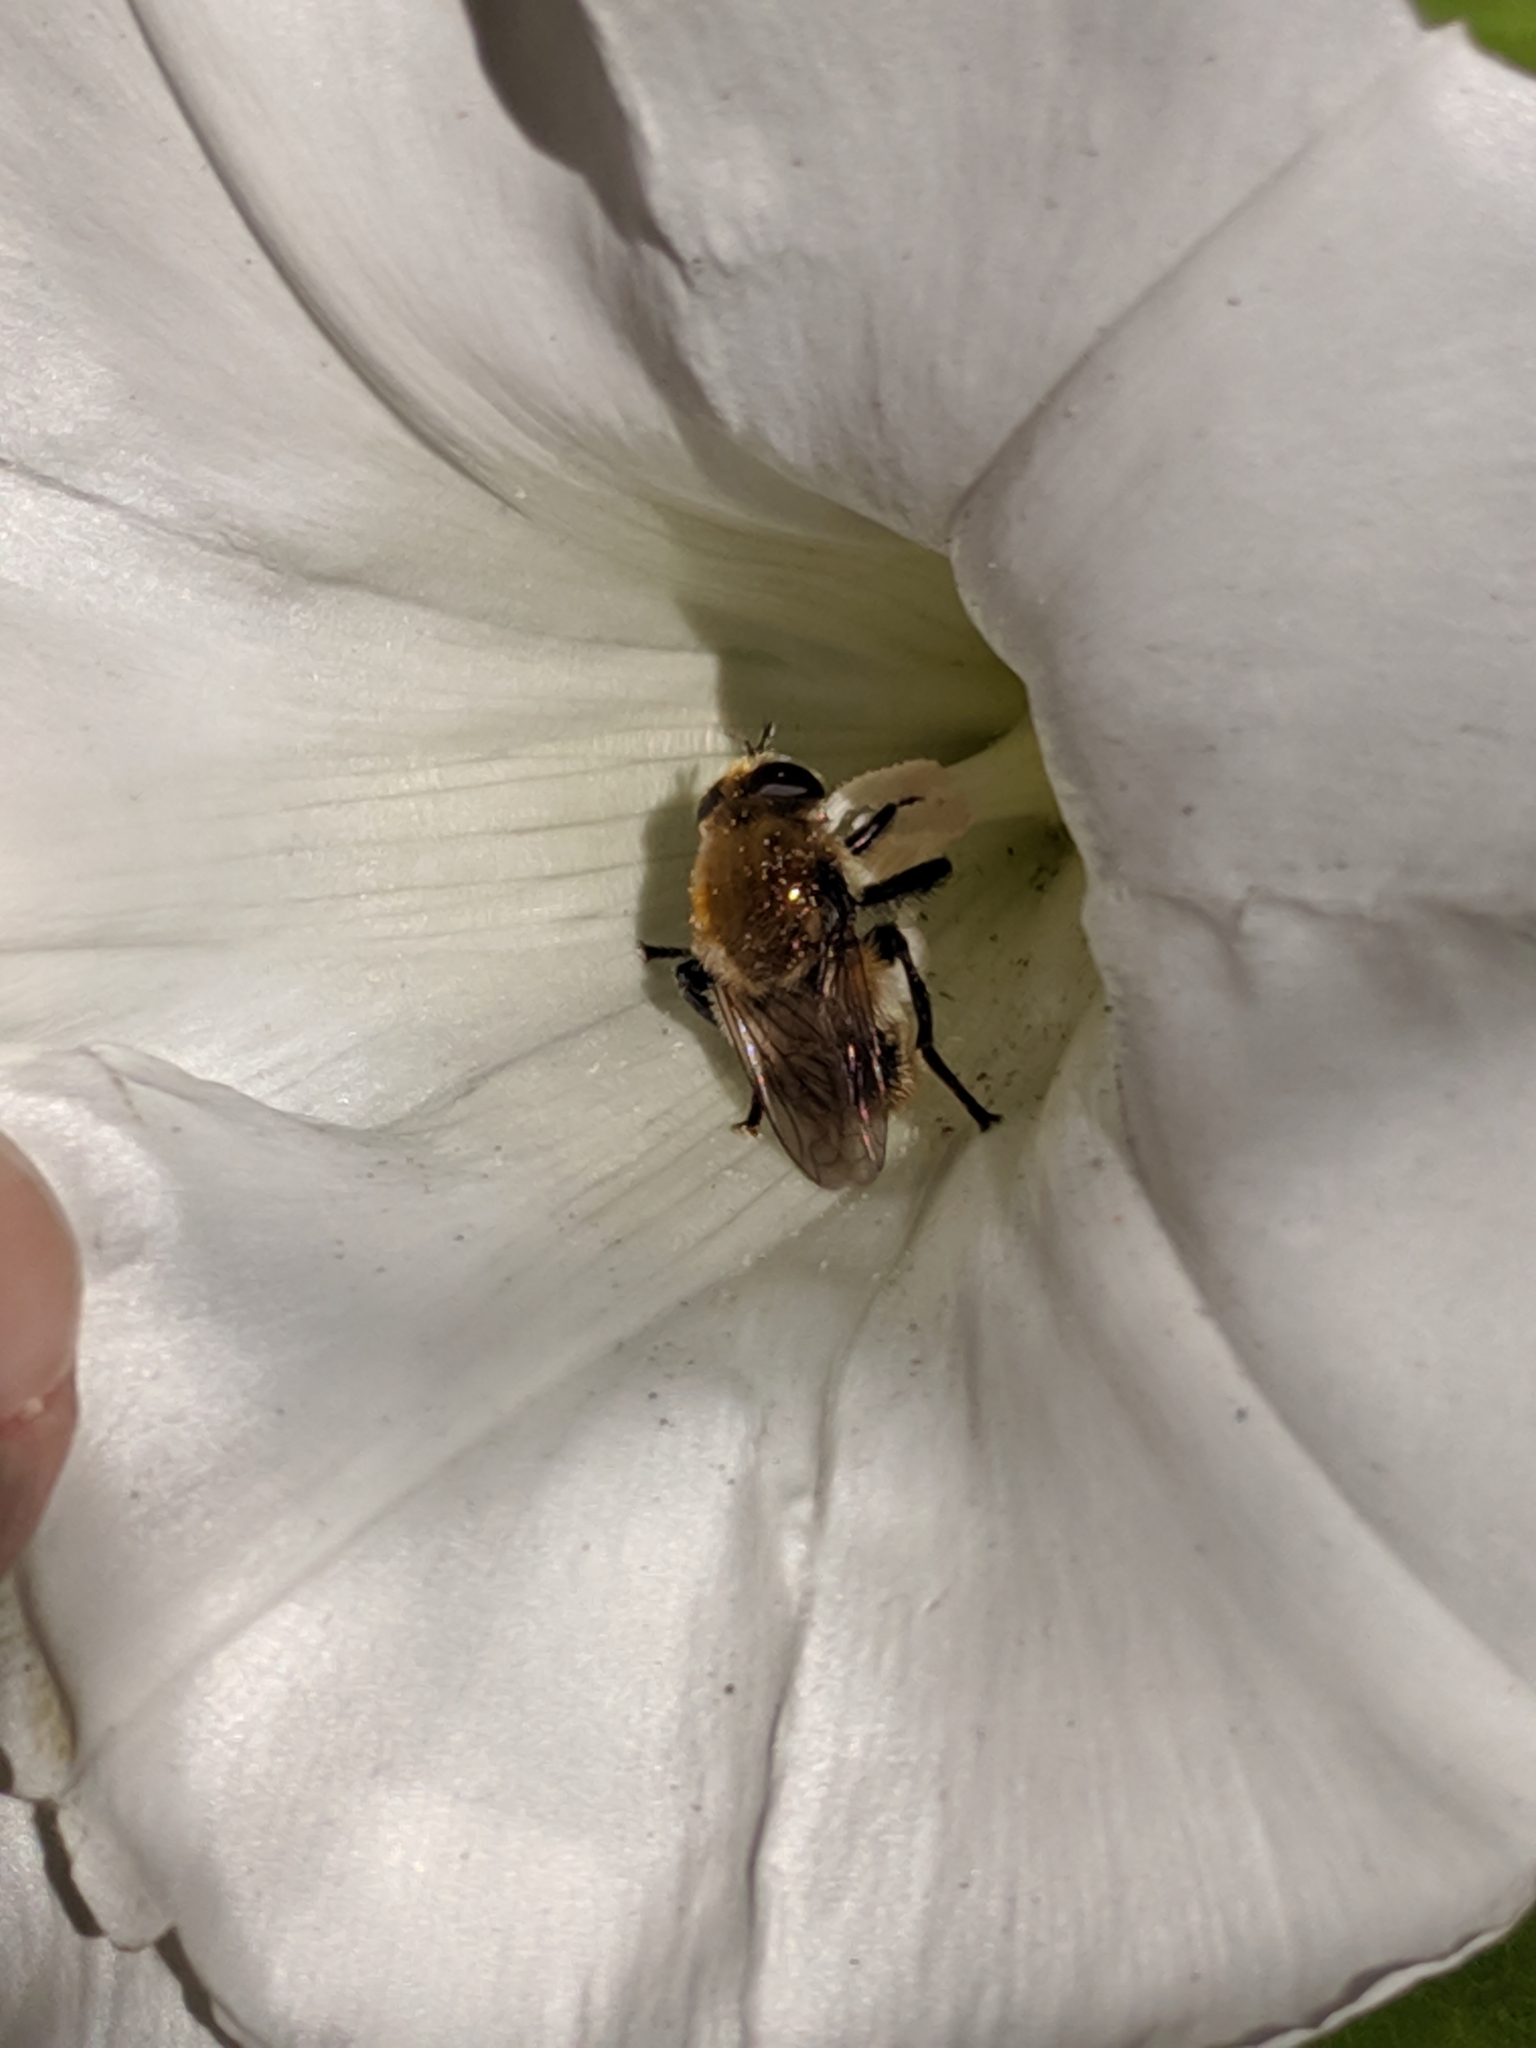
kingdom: Animalia
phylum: Arthropoda
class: Insecta
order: Diptera
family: Syrphidae
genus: Merodon
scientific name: Merodon equestris
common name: Greater bulb-fly
